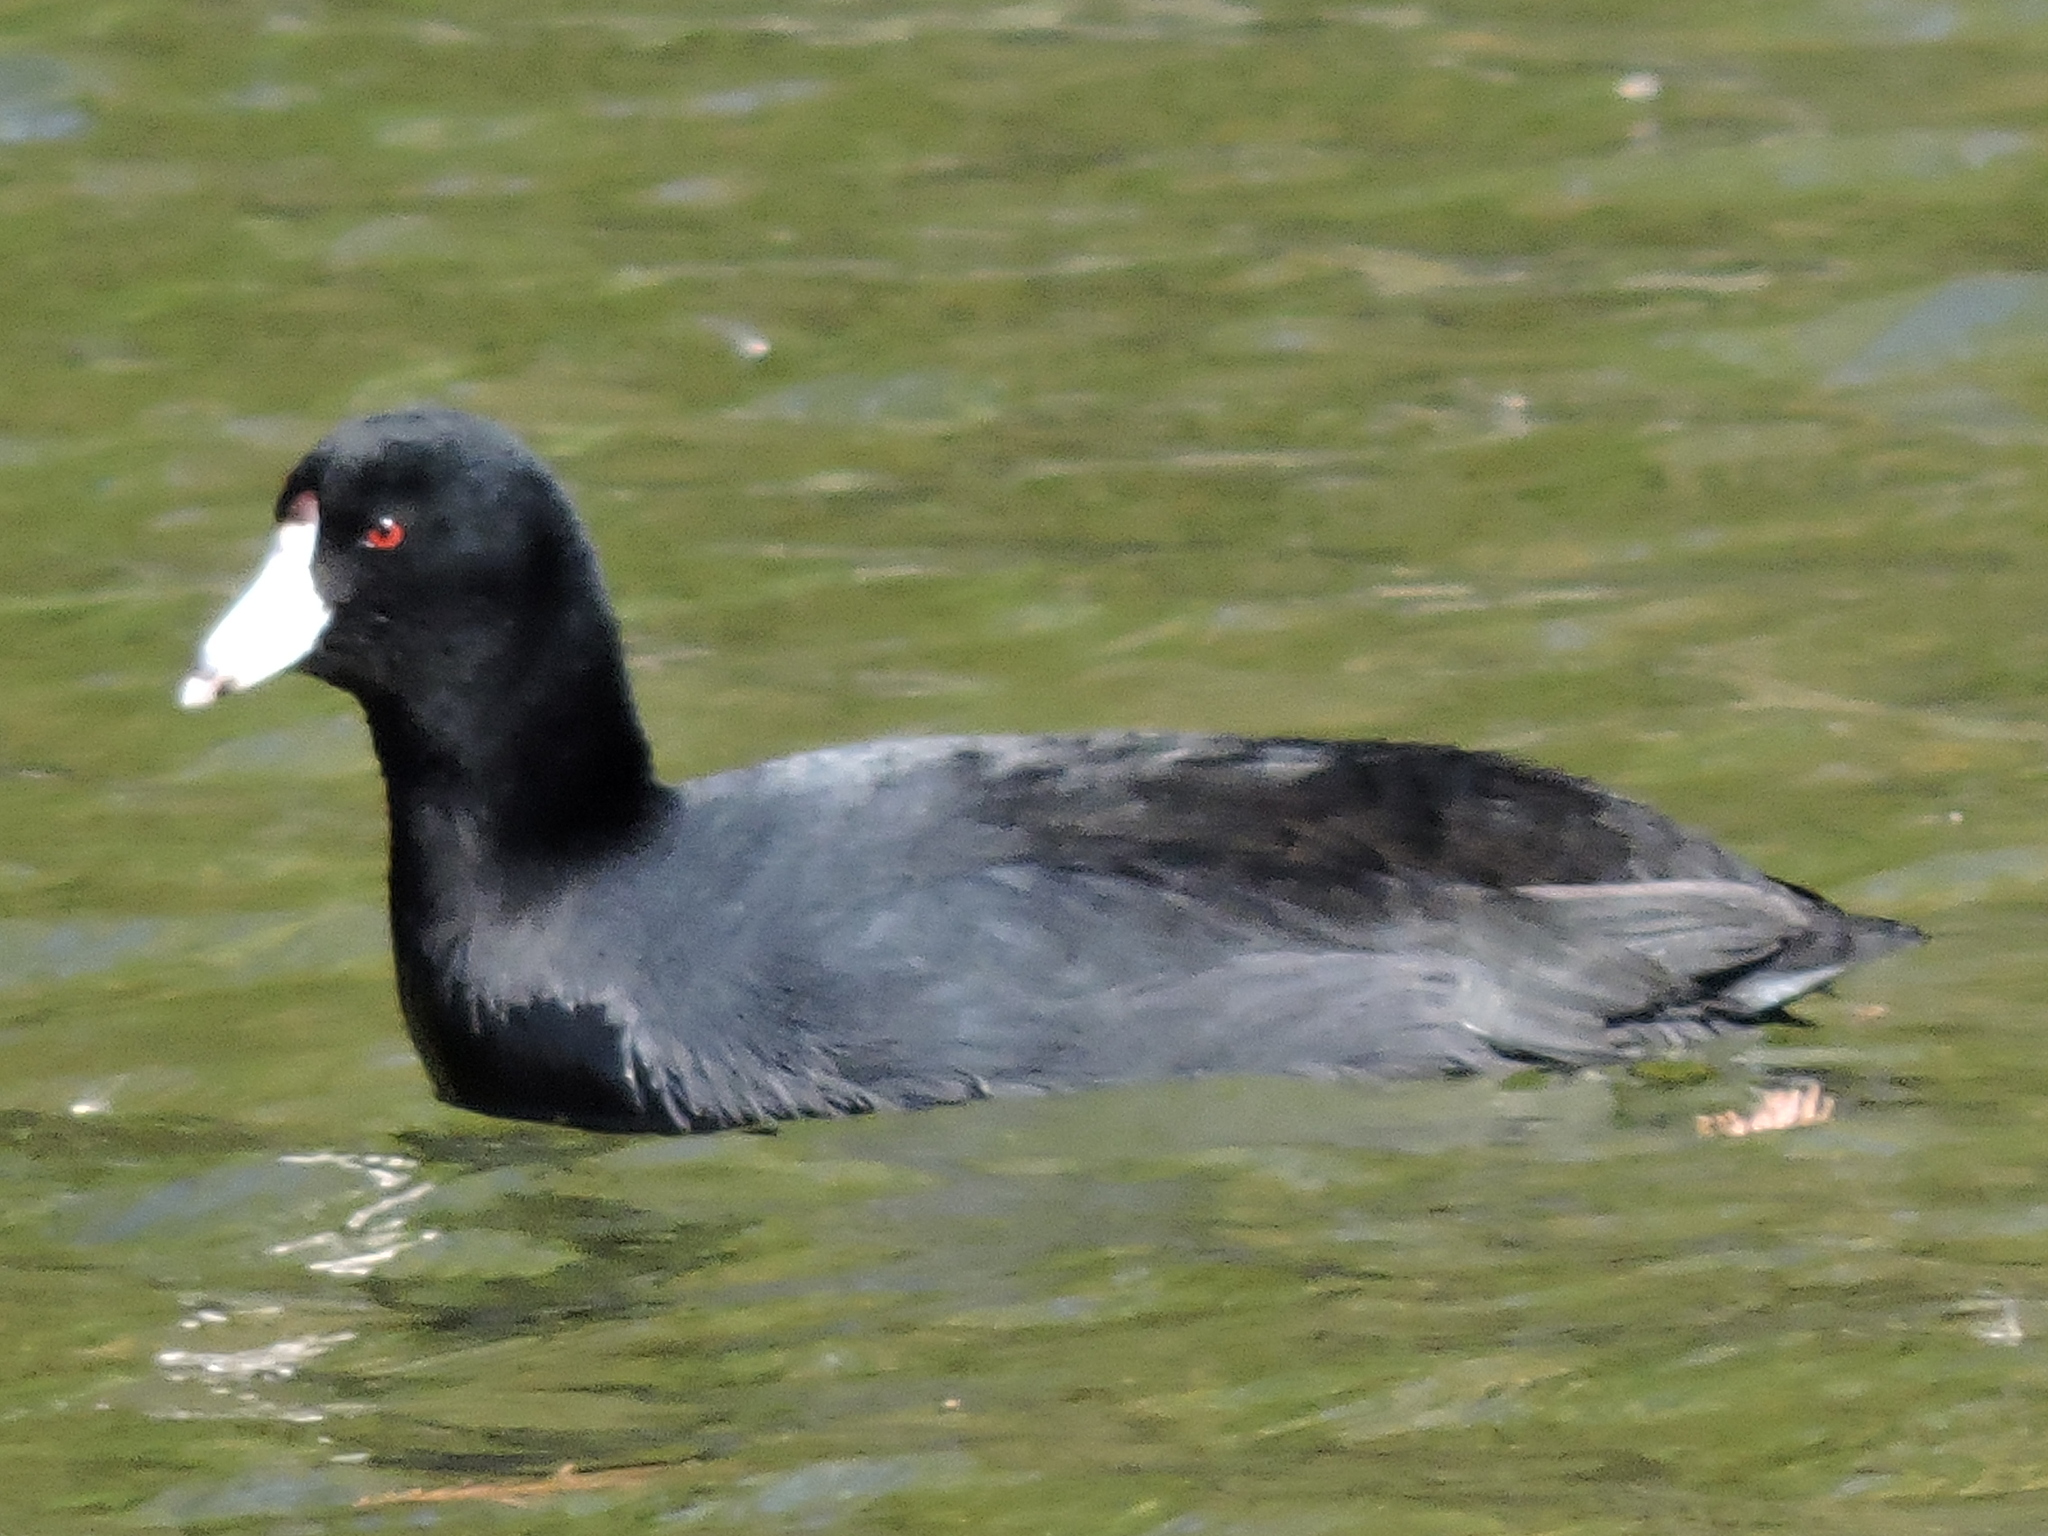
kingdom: Animalia
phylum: Chordata
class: Aves
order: Gruiformes
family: Rallidae
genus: Fulica
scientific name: Fulica americana
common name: American coot
